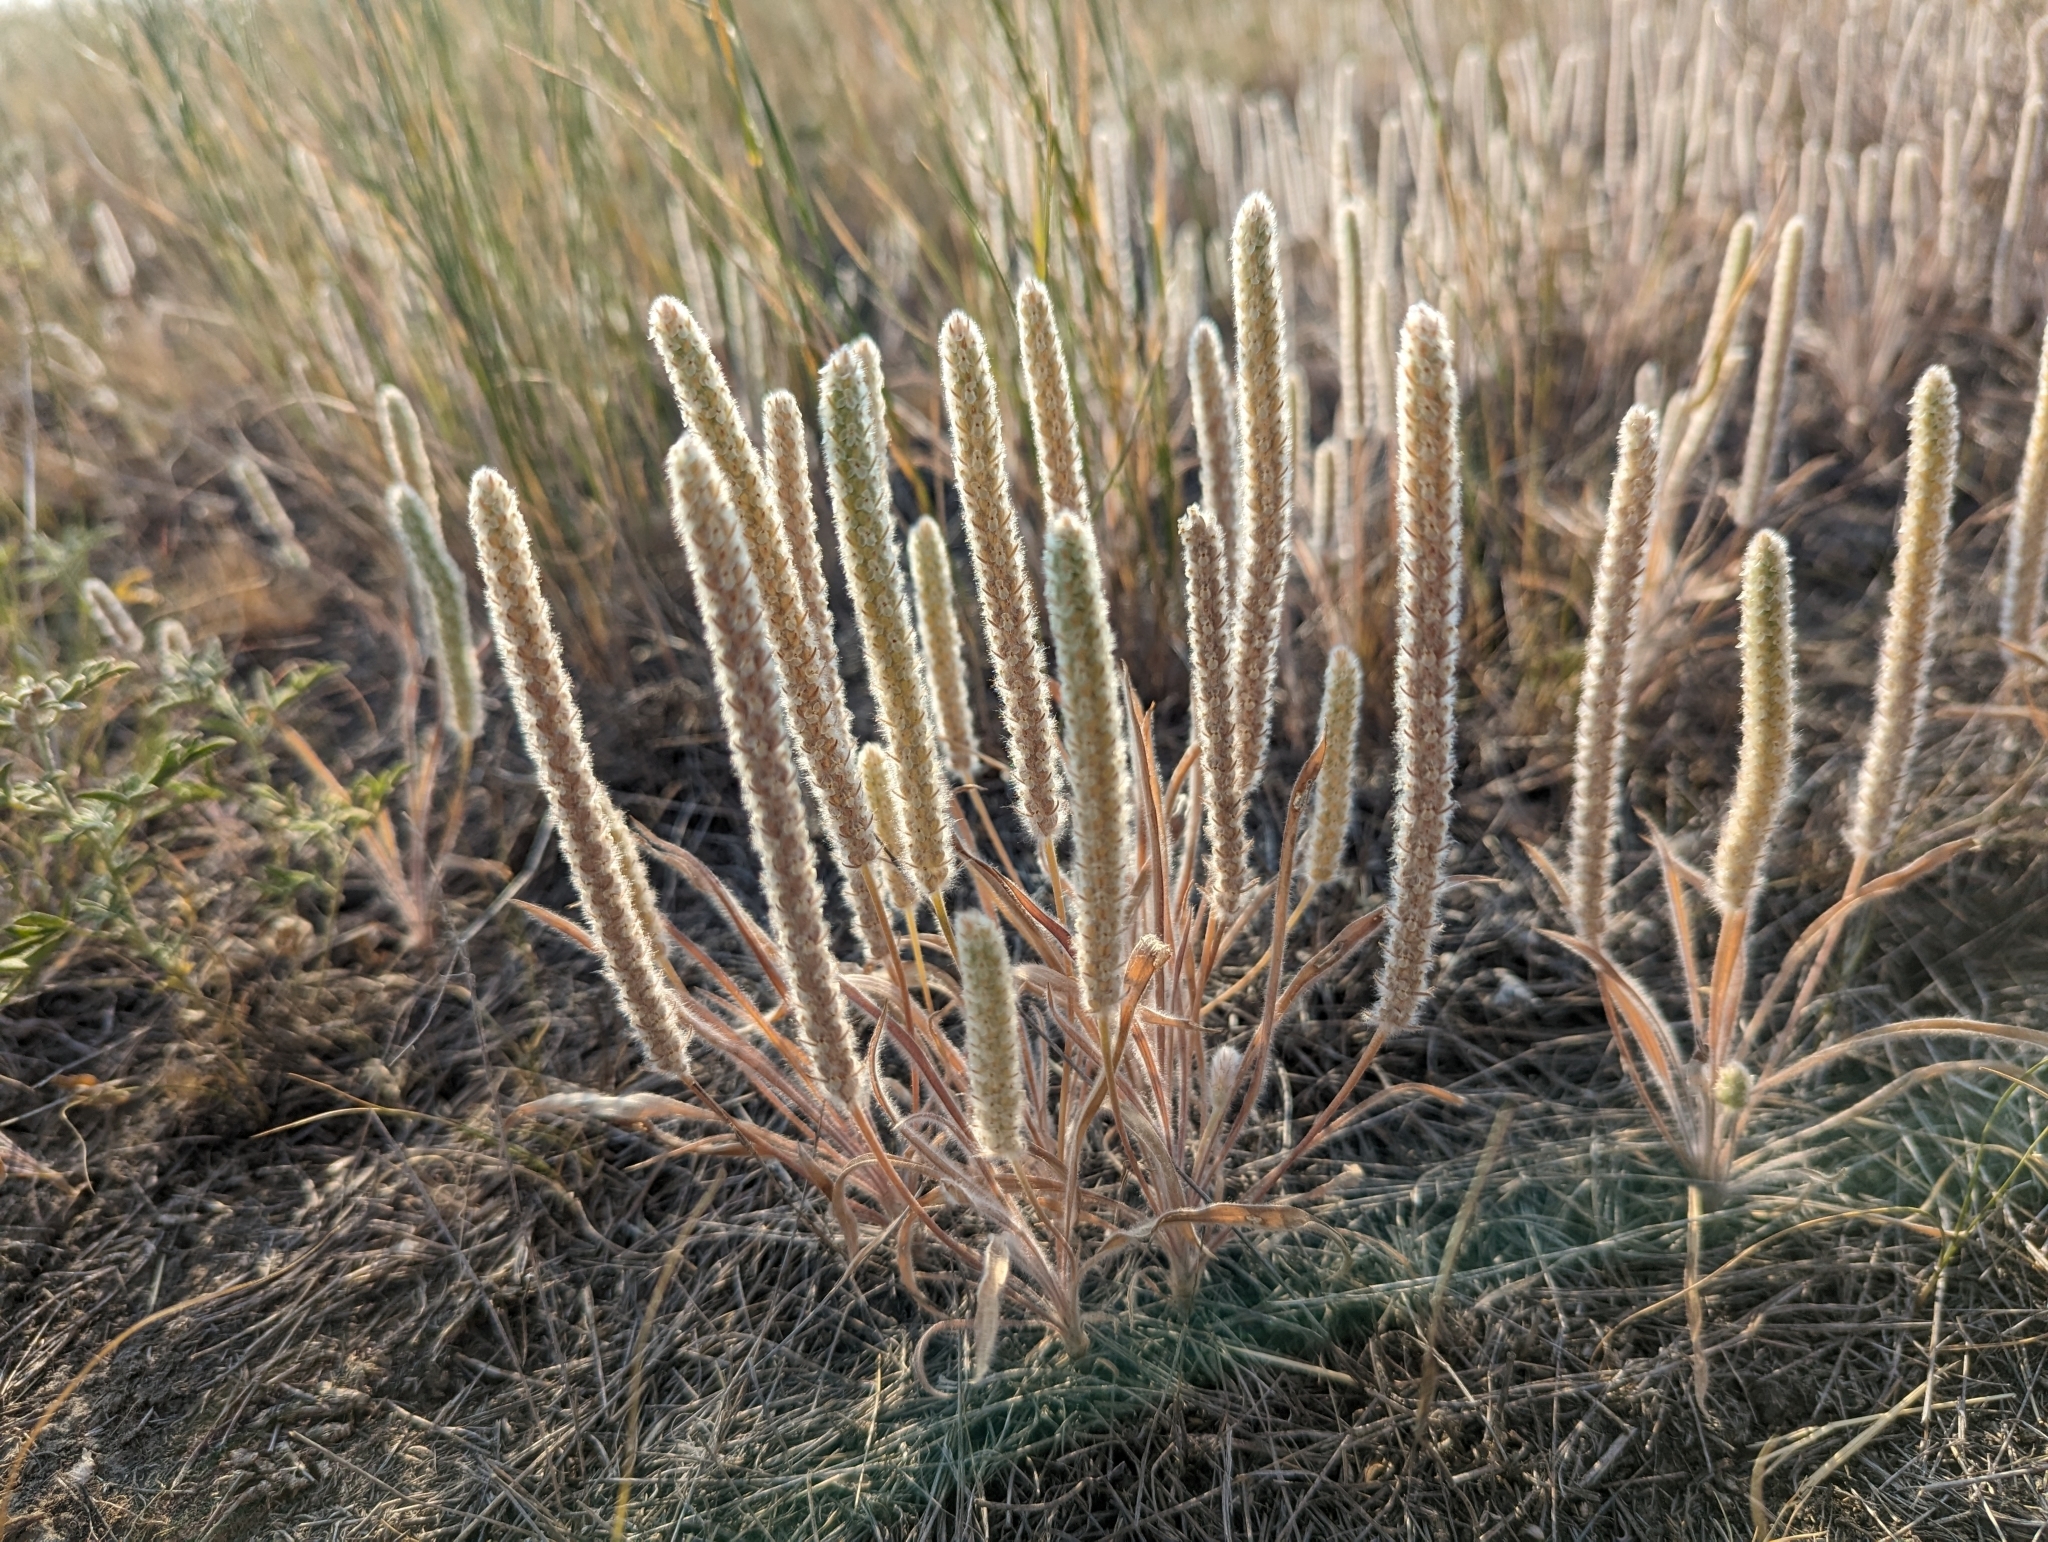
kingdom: Plantae
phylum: Tracheophyta
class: Magnoliopsida
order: Lamiales
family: Plantaginaceae
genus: Plantago
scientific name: Plantago patagonica
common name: Patagonia indian-wheat
